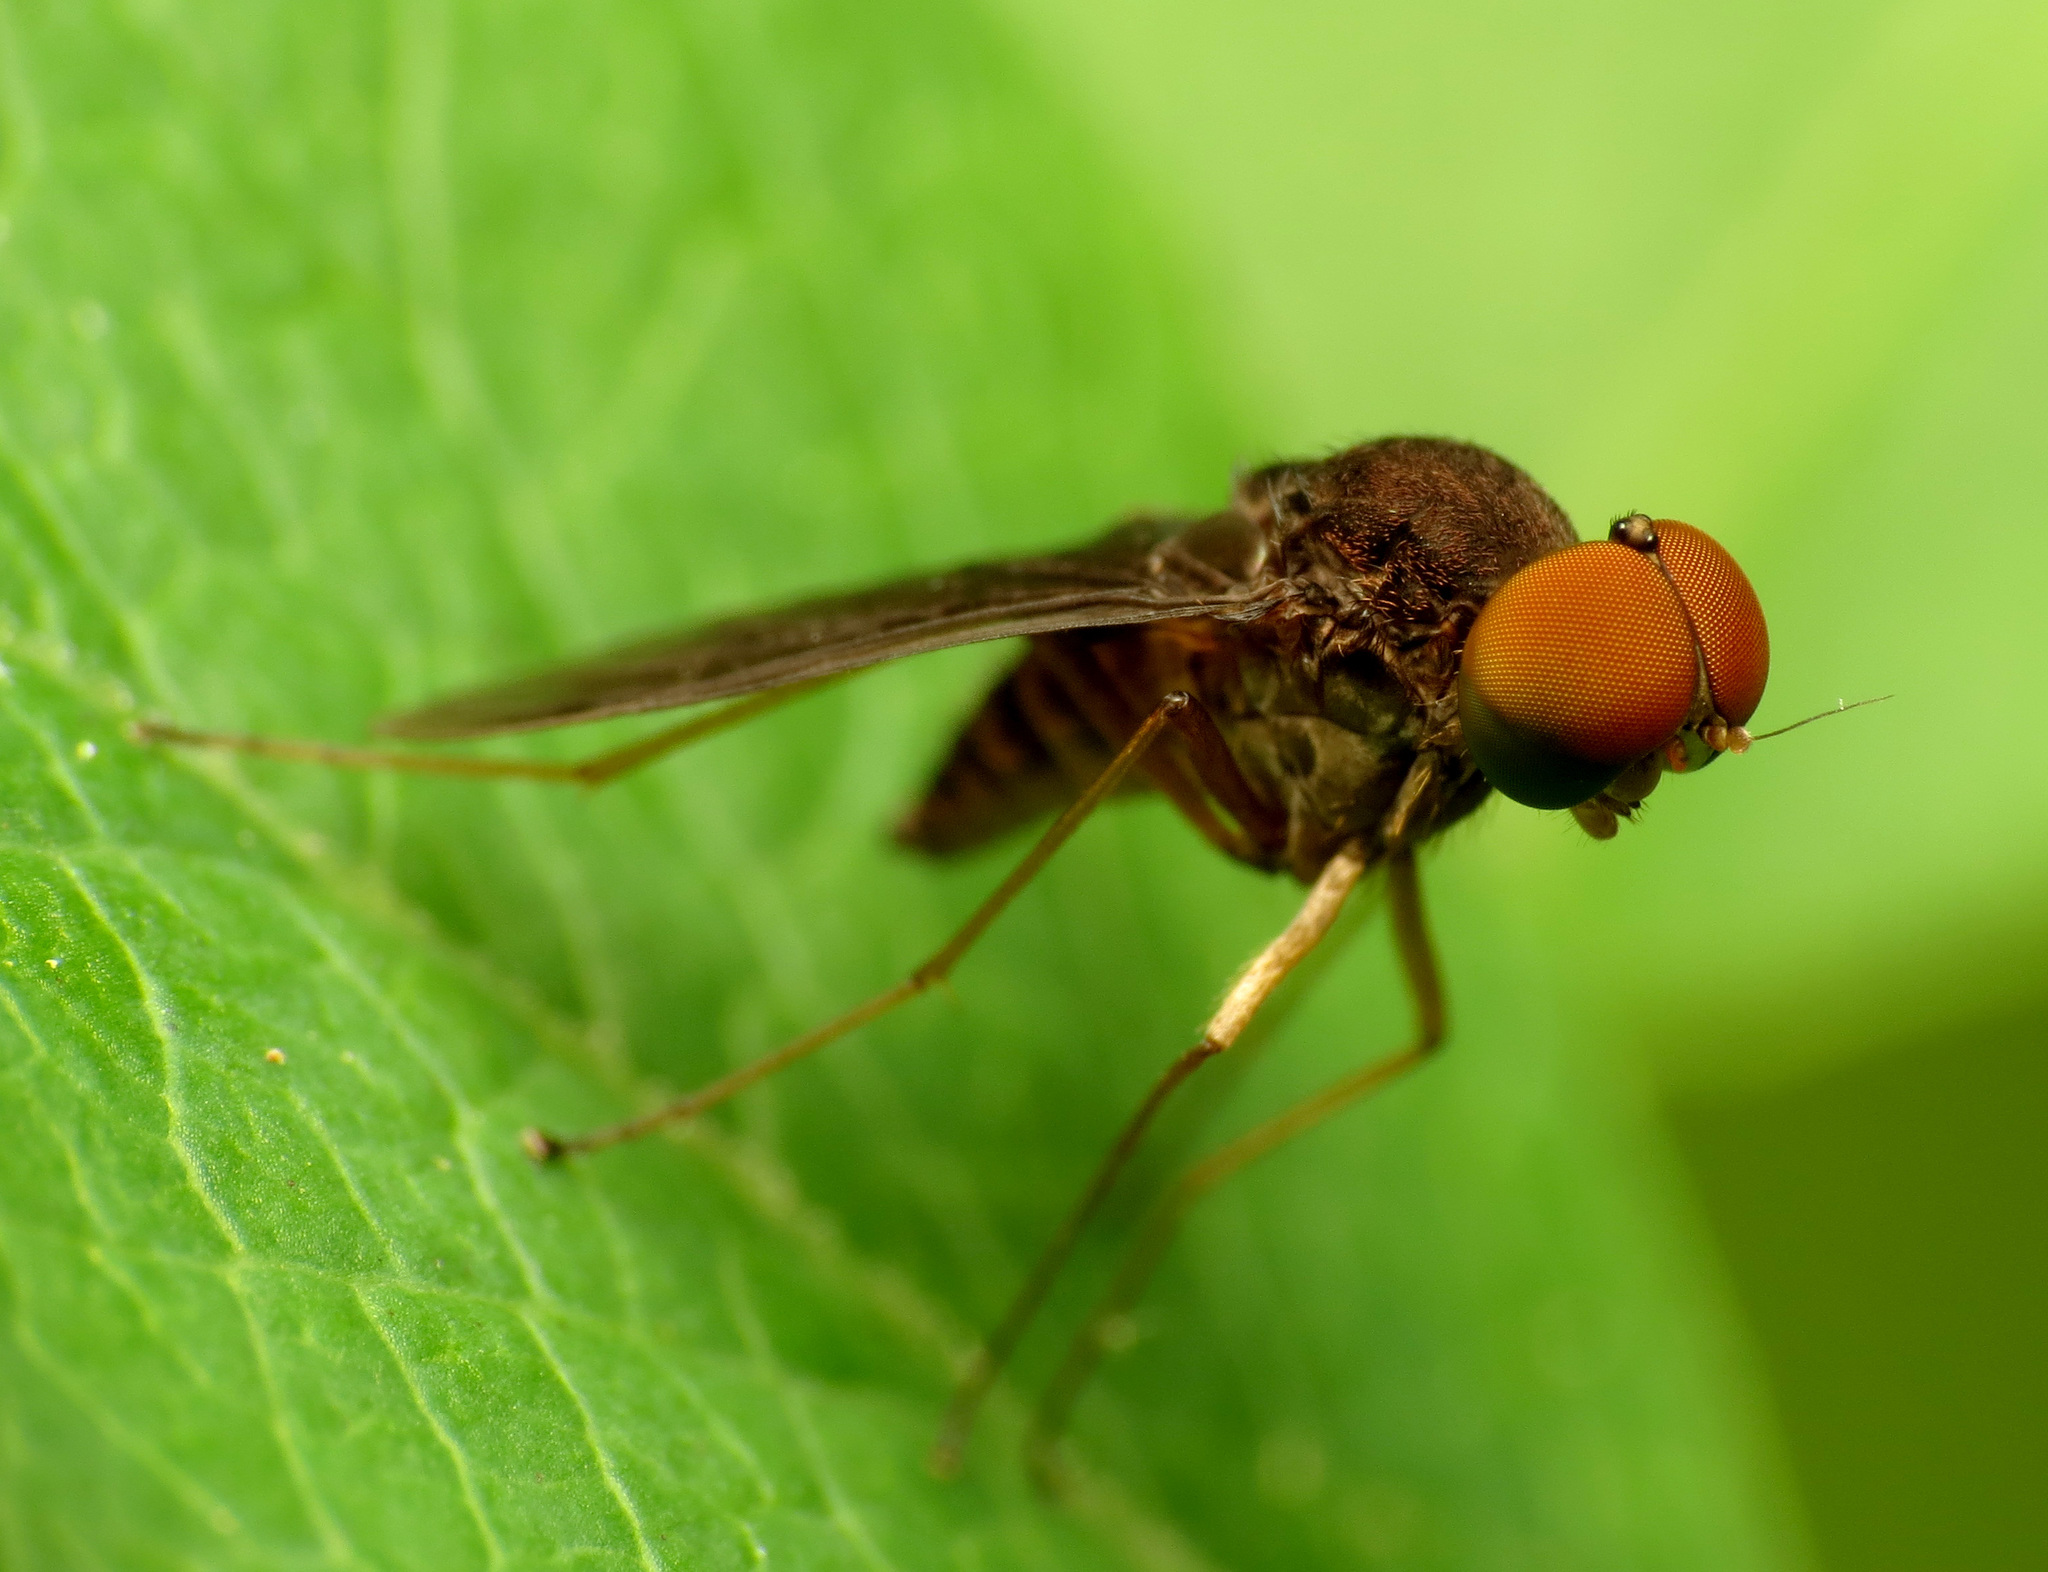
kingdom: Animalia
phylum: Arthropoda
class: Insecta
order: Diptera
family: Rhagionidae
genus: Chrysopilus
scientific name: Chrysopilus quadratus
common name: Quadrate snipe fly
